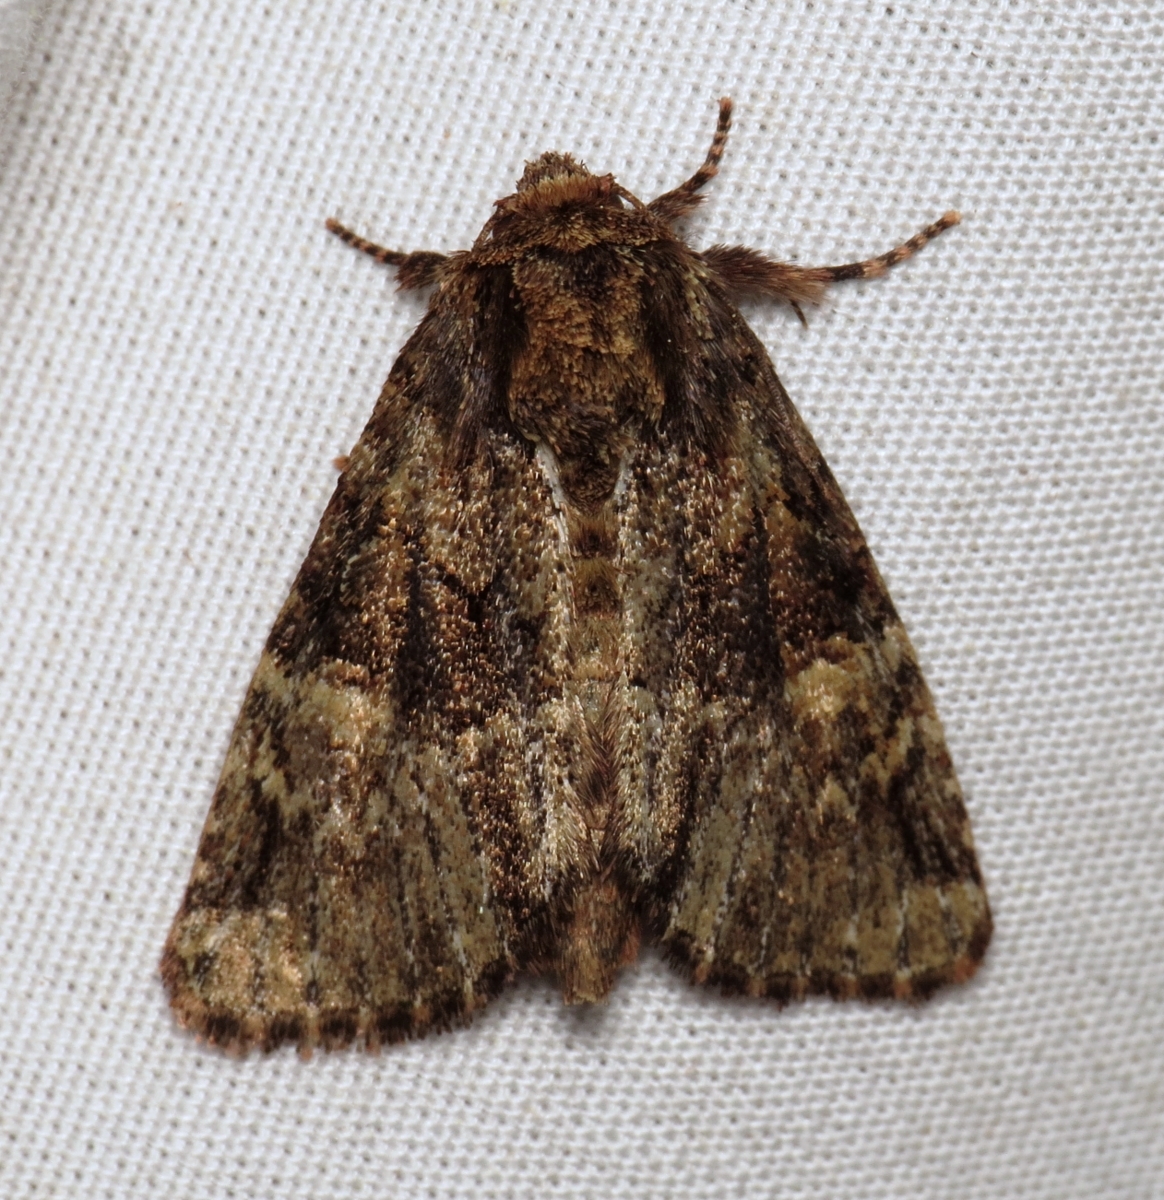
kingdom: Animalia
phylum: Arthropoda
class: Insecta
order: Lepidoptera
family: Noctuidae
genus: Phosphila
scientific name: Phosphila turbulenta
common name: Turbulent phosphila moth
